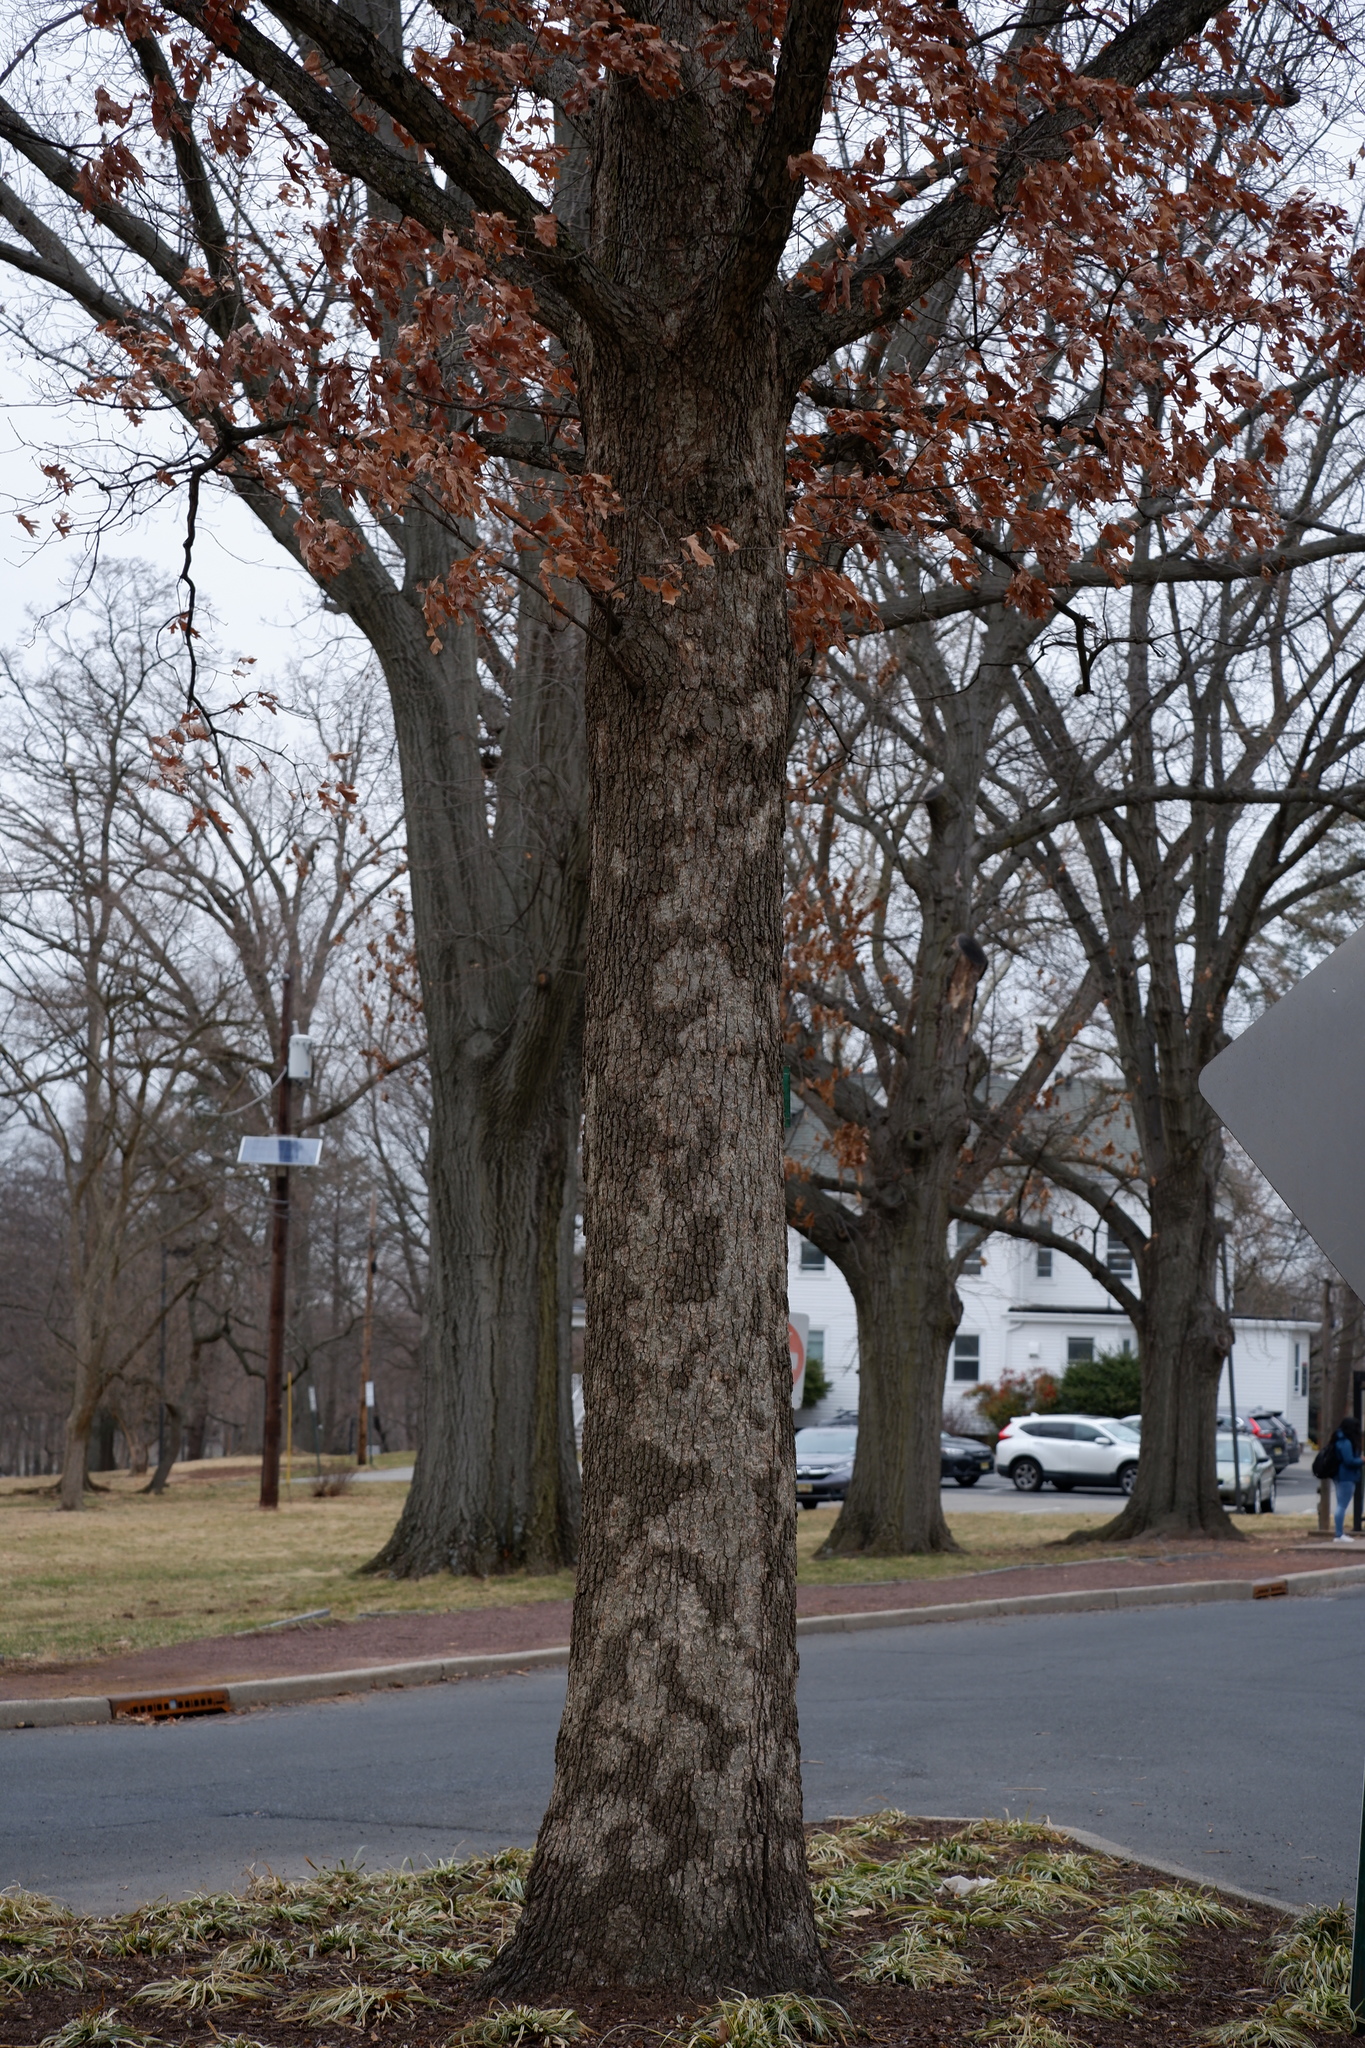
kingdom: Fungi
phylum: Basidiomycota
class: Agaricomycetes
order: Russulales
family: Stereaceae
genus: Acanthophysium
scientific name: Acanthophysium oakesii
